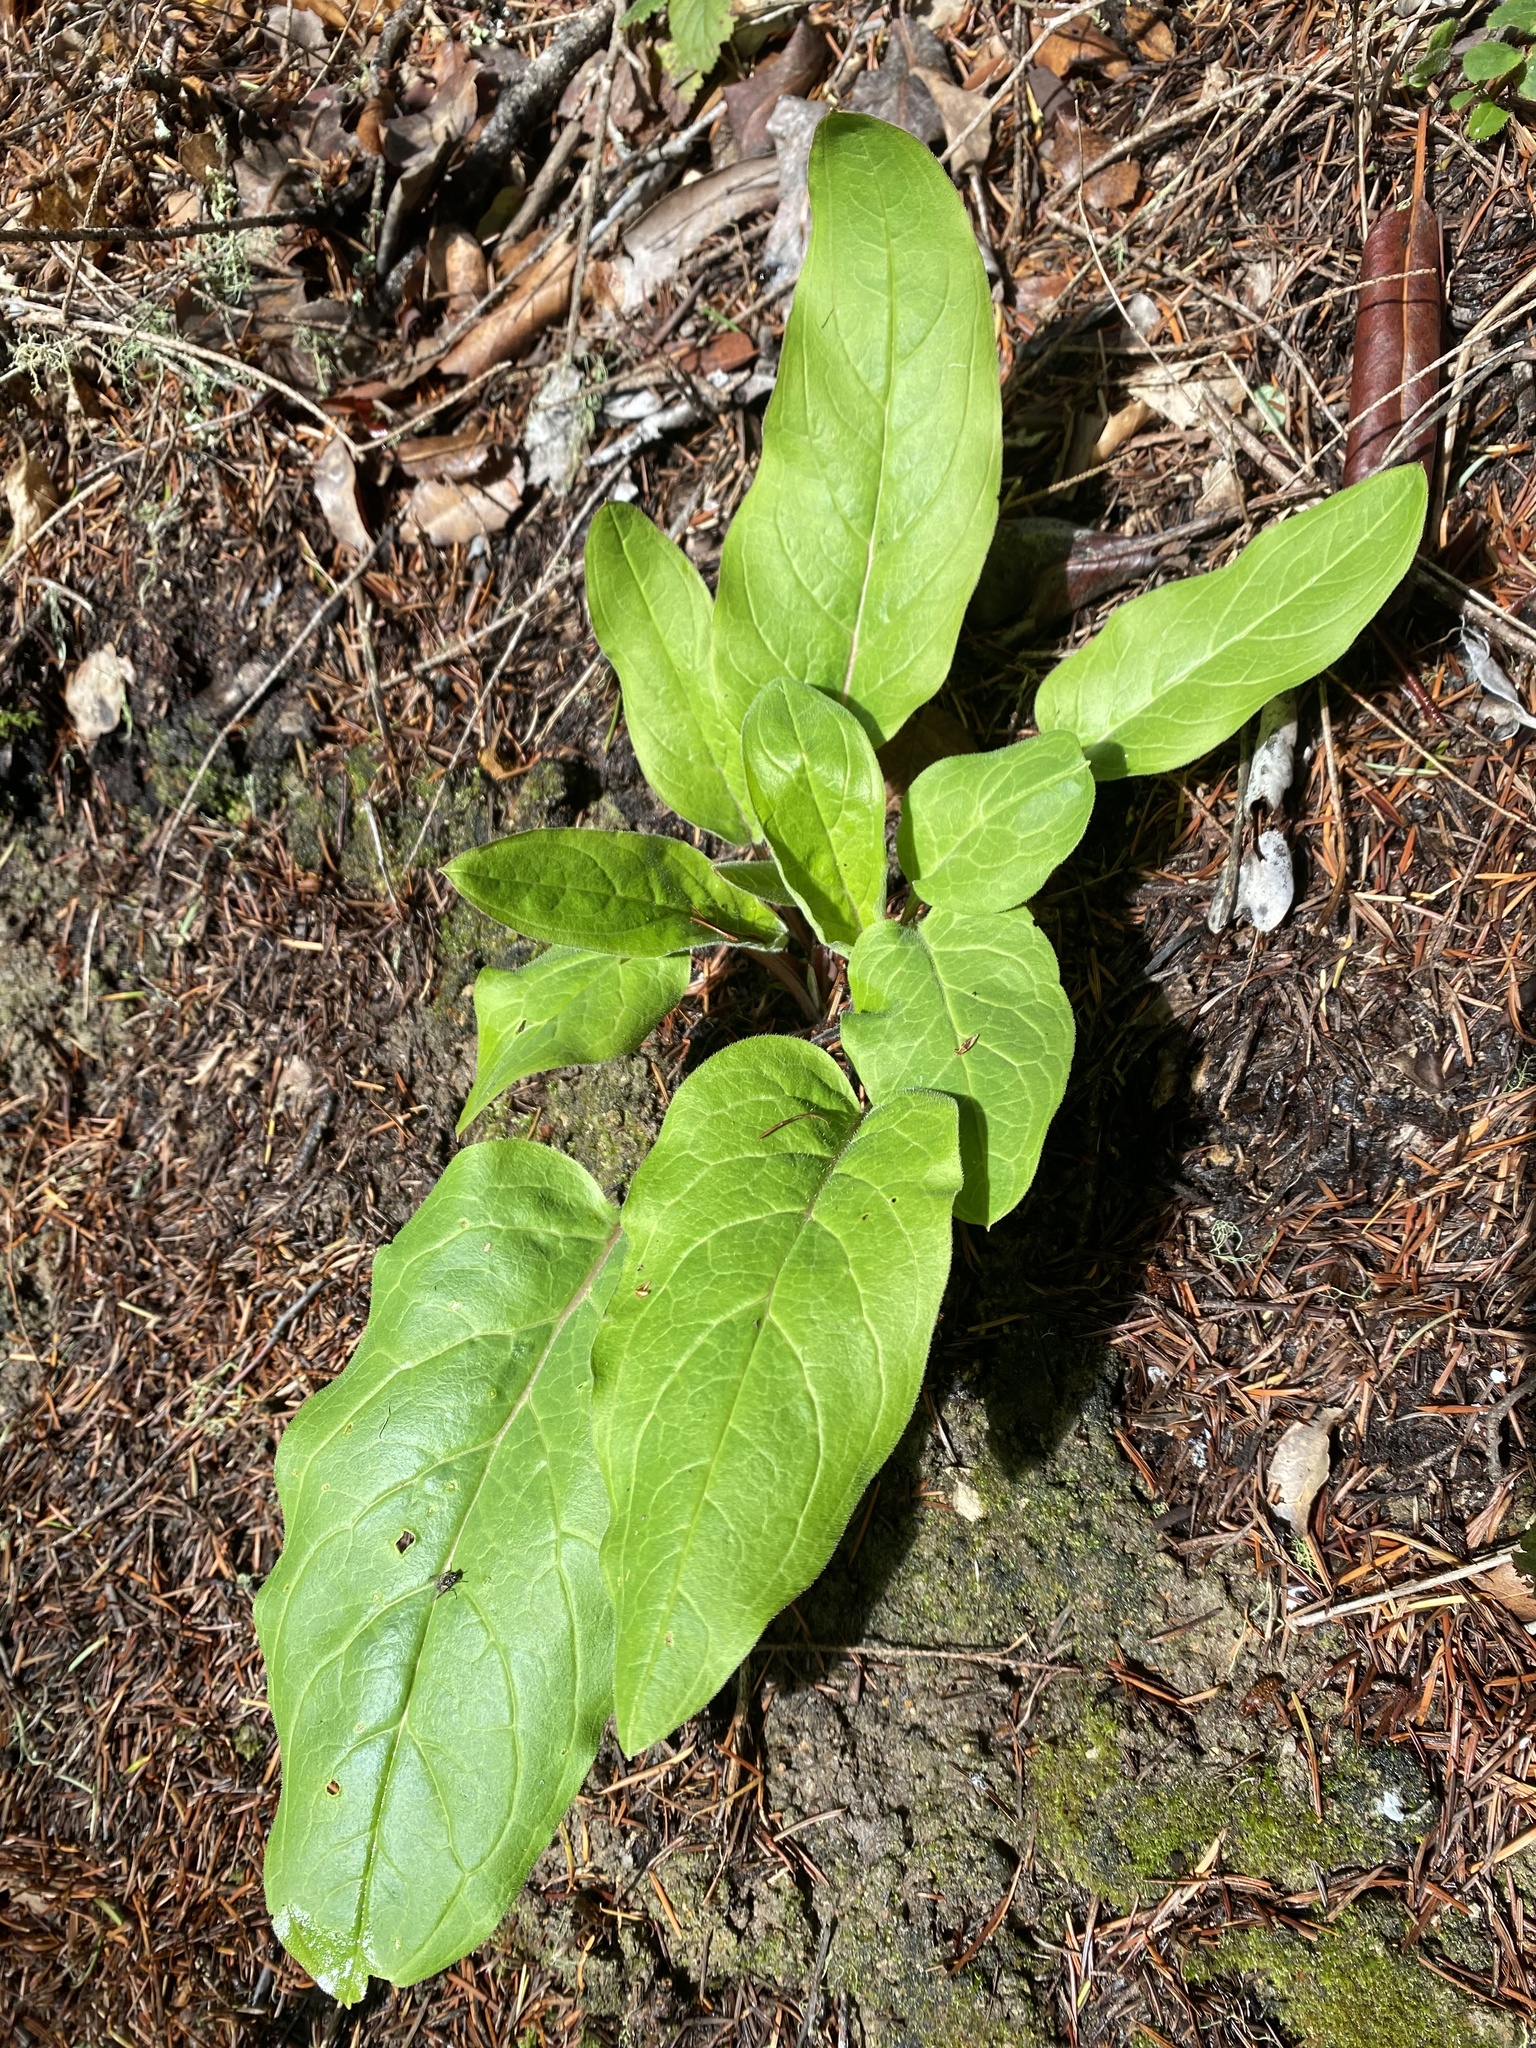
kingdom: Plantae
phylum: Tracheophyta
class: Magnoliopsida
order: Boraginales
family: Boraginaceae
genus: Adelinia
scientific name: Adelinia grande
